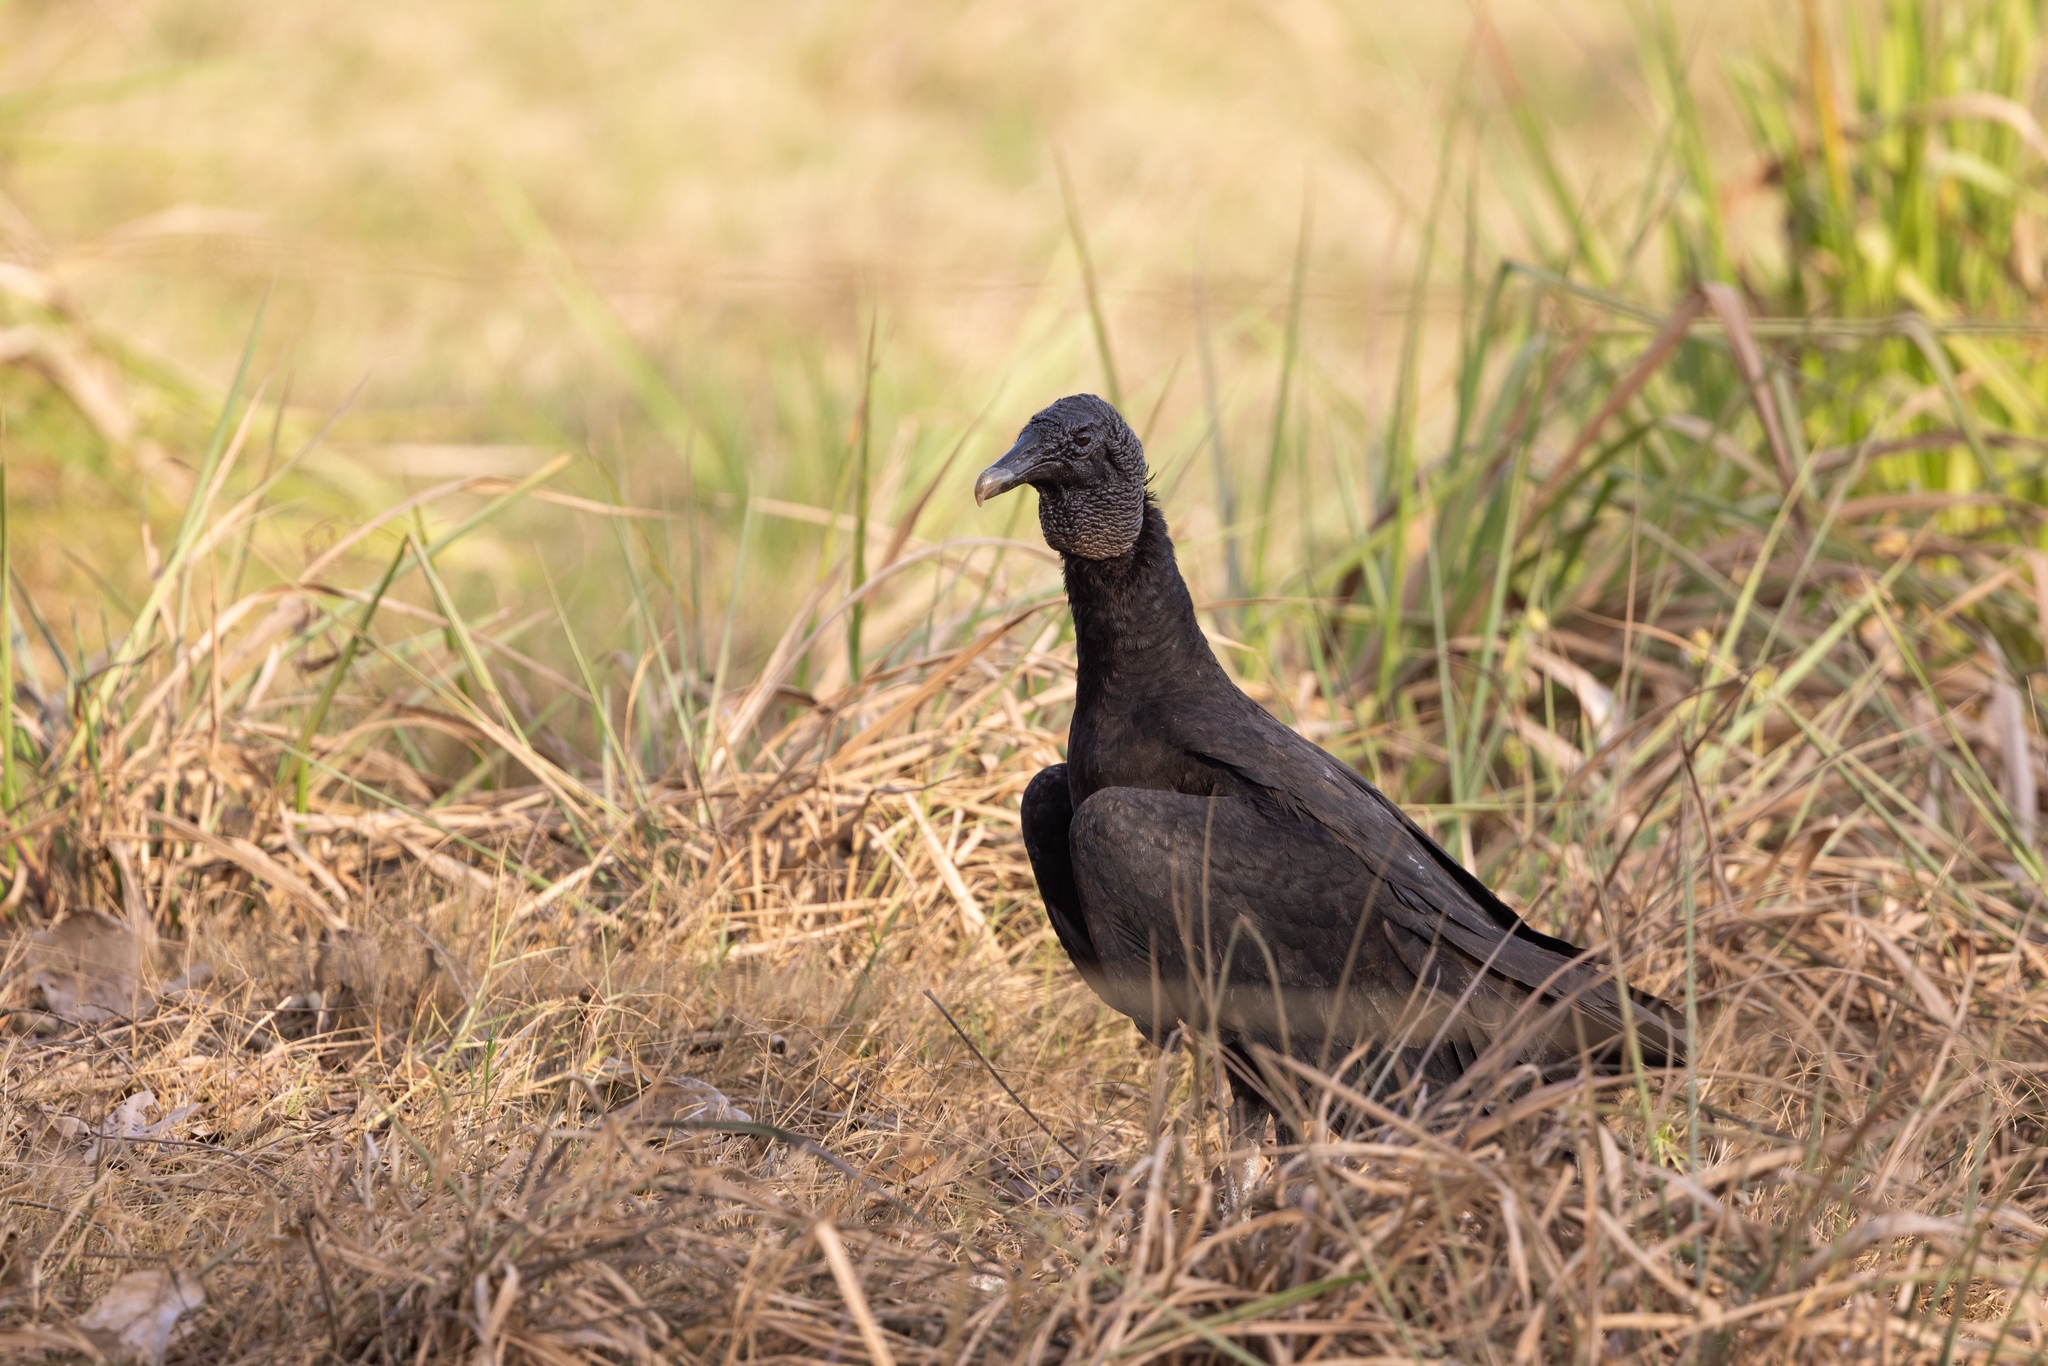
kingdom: Animalia
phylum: Chordata
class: Aves
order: Accipitriformes
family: Cathartidae
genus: Coragyps
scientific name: Coragyps atratus
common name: Black vulture
